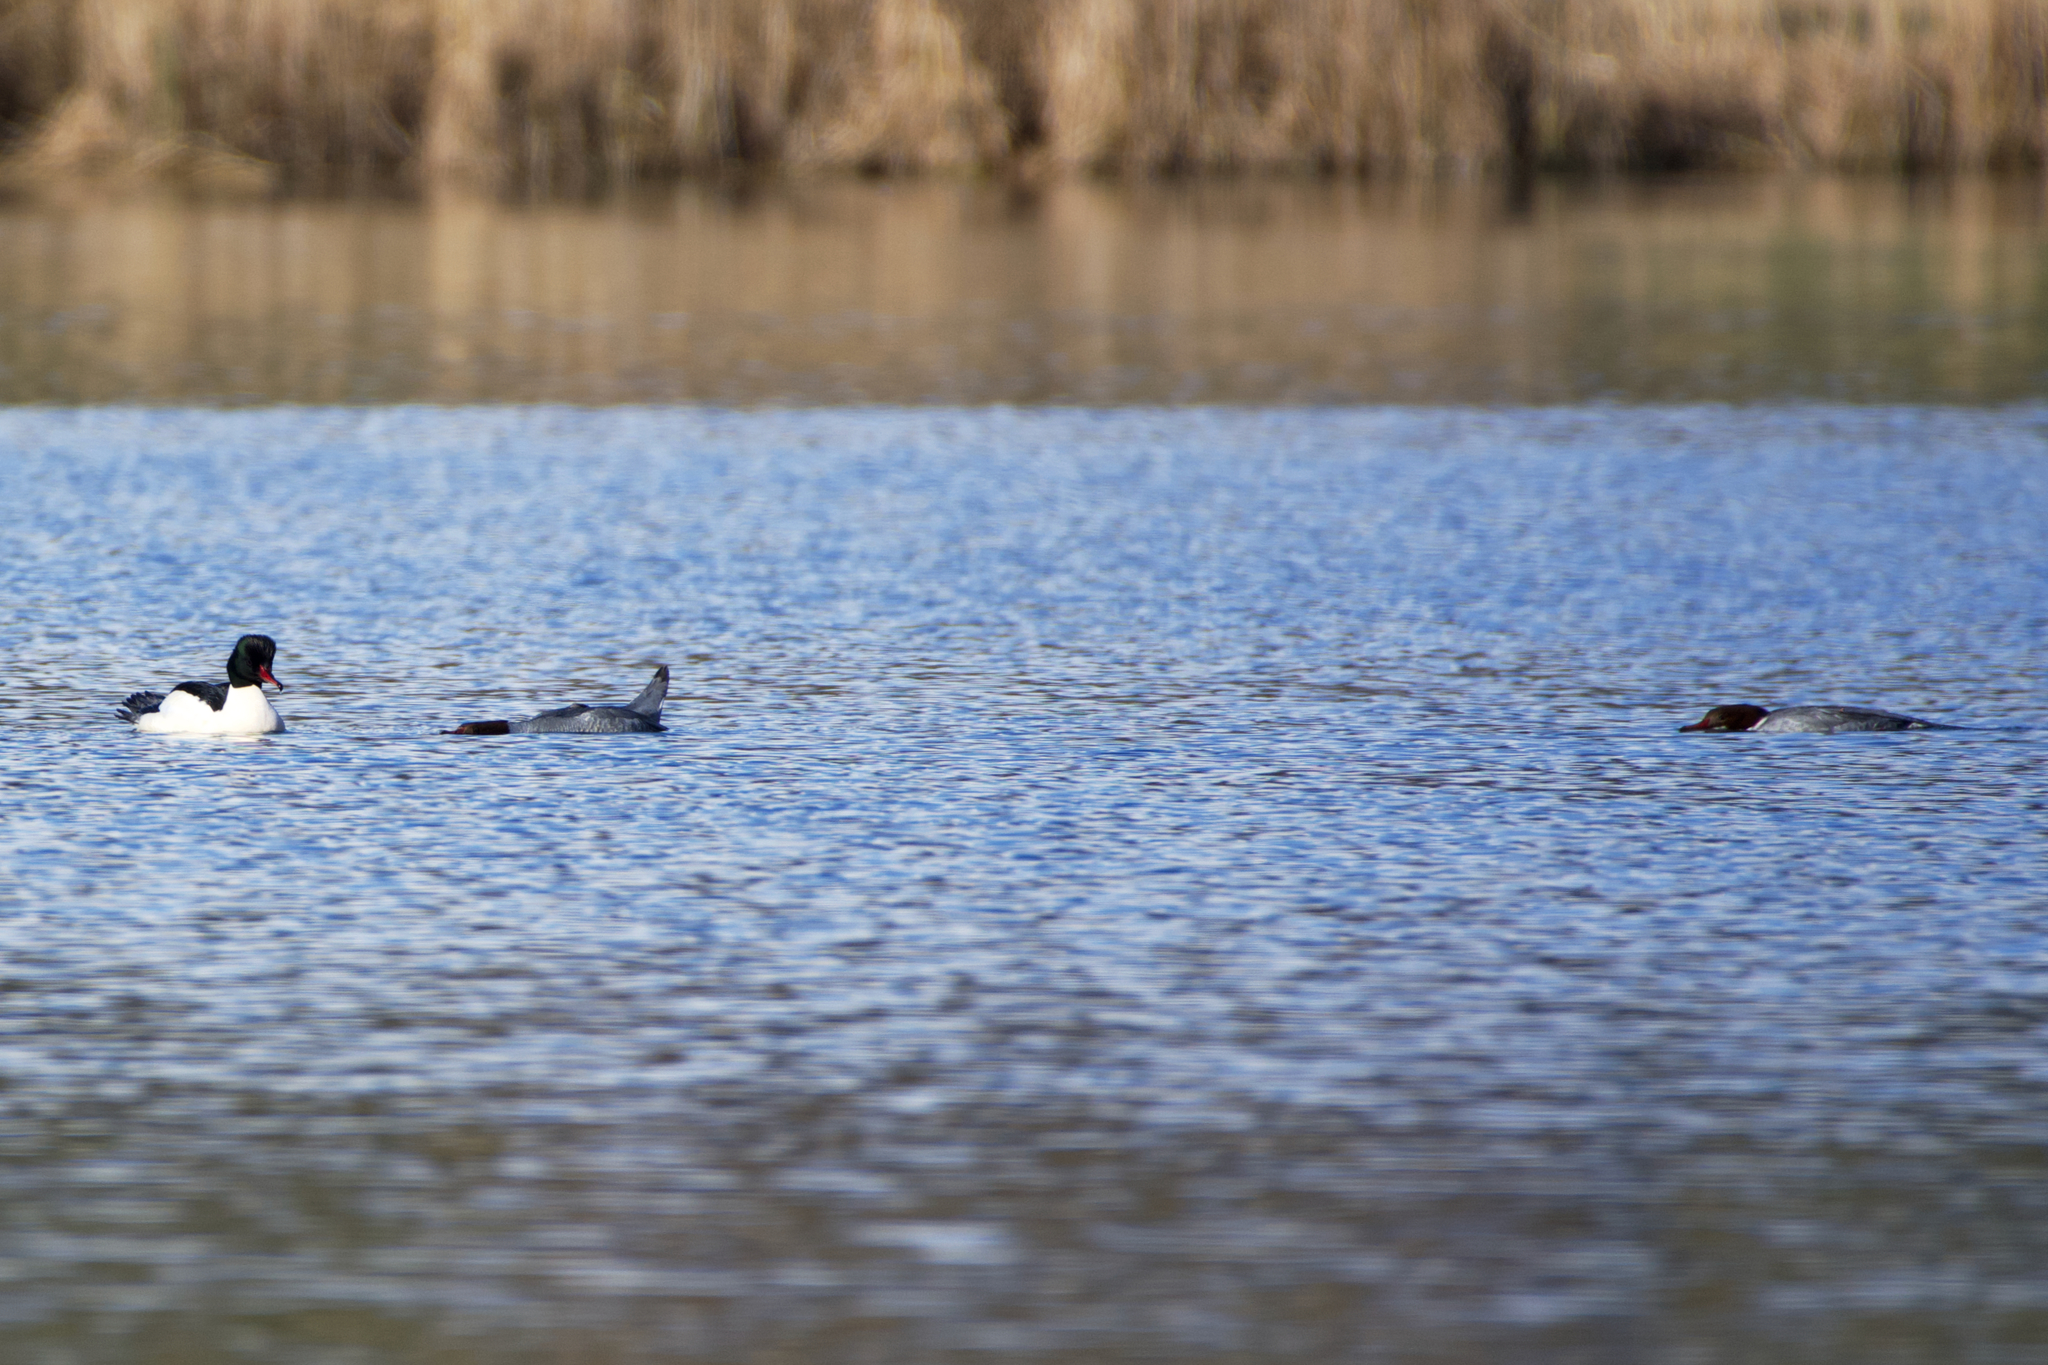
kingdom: Animalia
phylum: Chordata
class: Aves
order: Anseriformes
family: Anatidae
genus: Mergus
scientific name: Mergus merganser
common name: Common merganser
